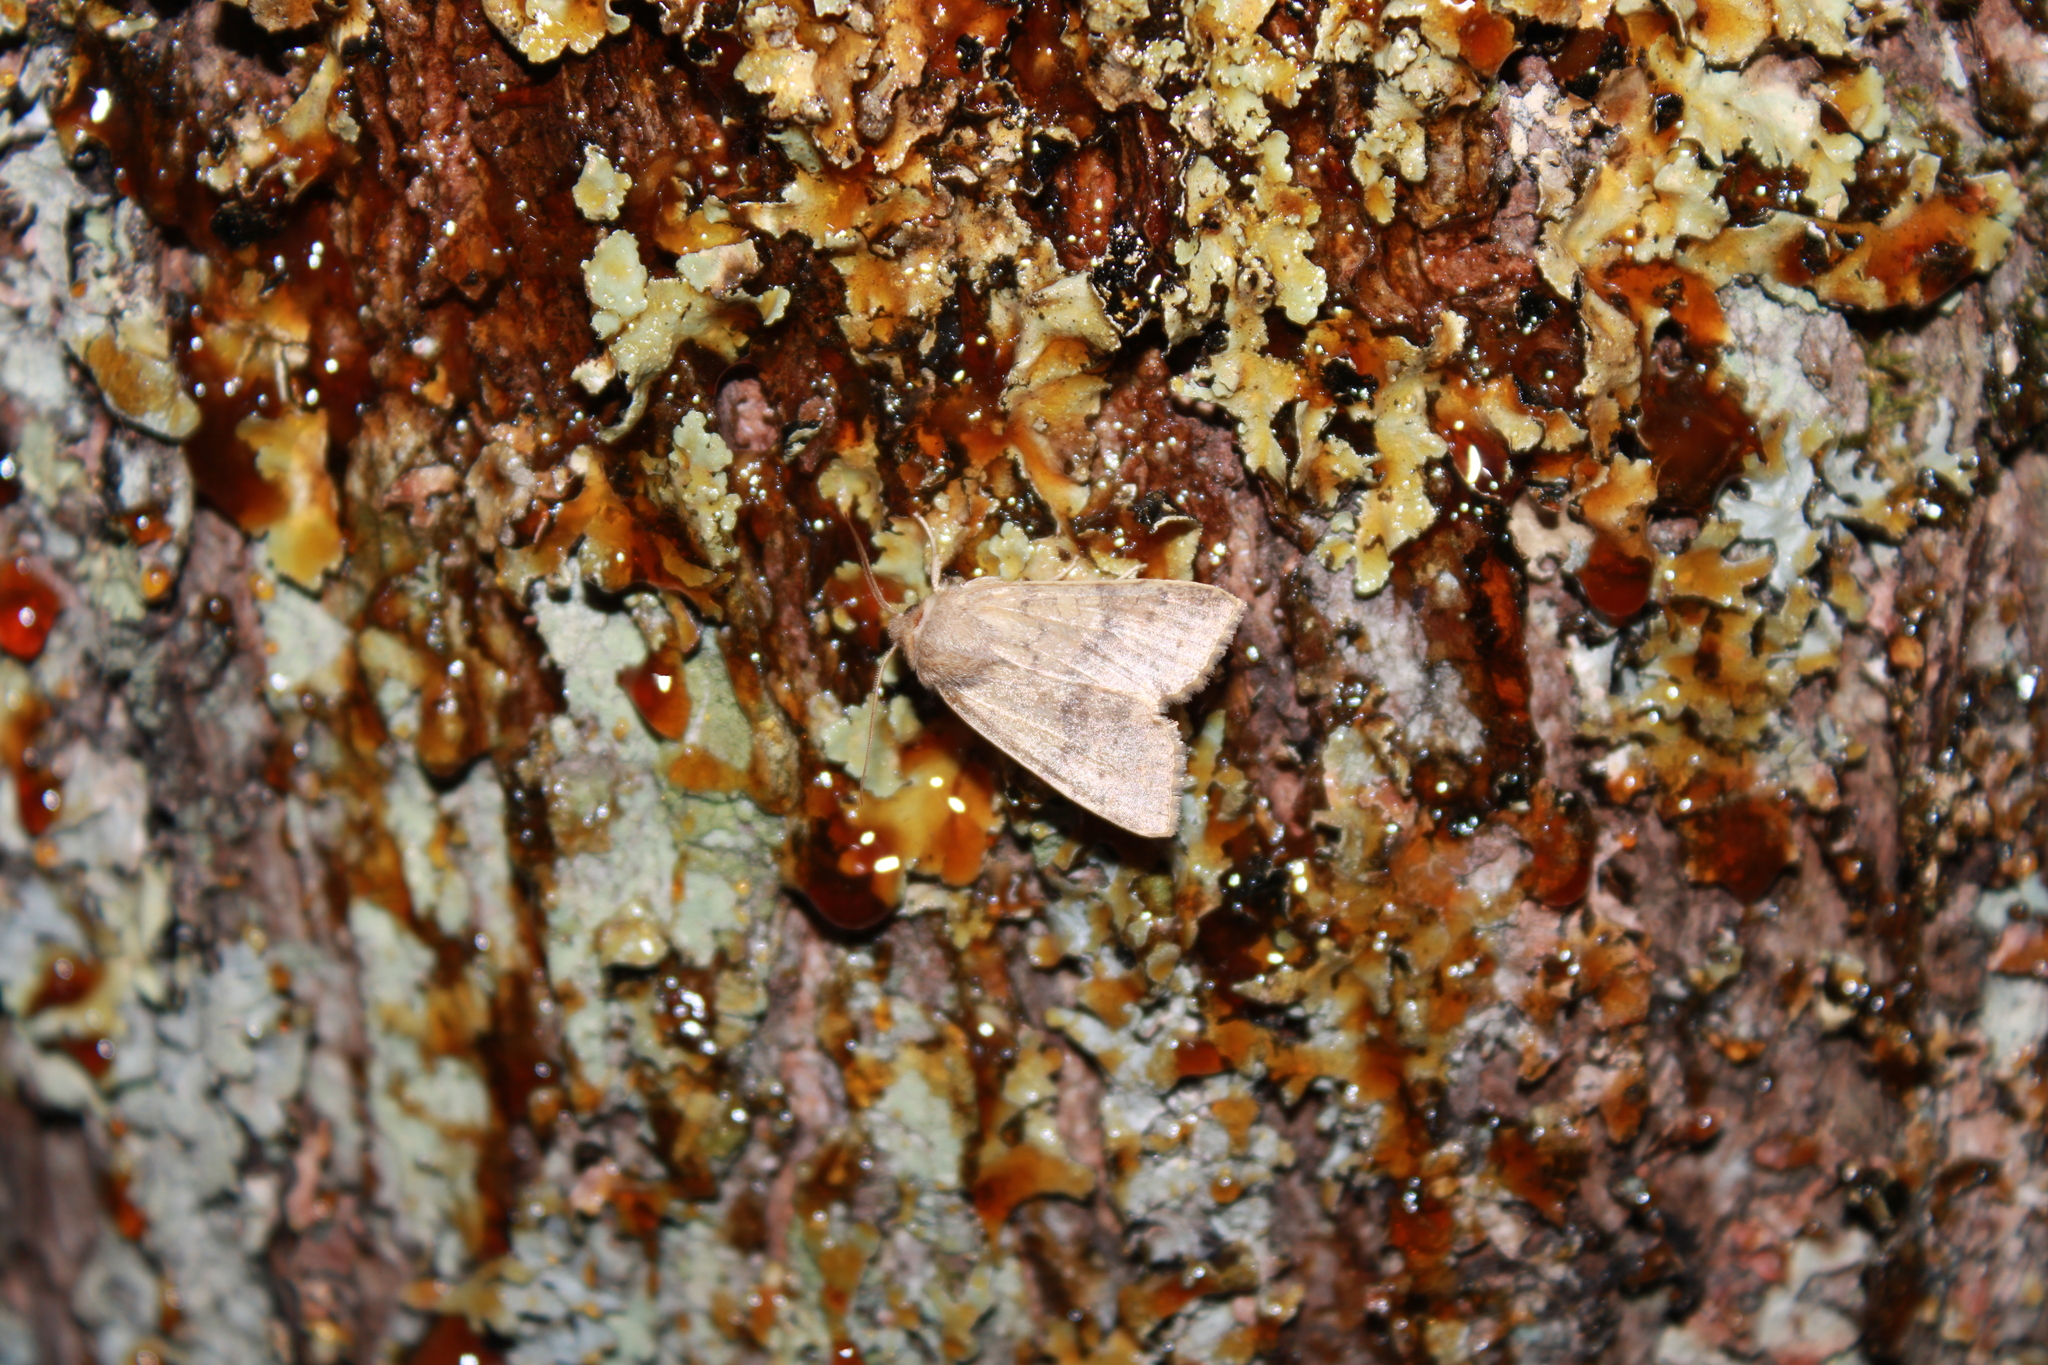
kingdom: Animalia
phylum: Arthropoda
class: Insecta
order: Lepidoptera
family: Noctuidae
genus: Agrochola
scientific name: Agrochola bicolorago
